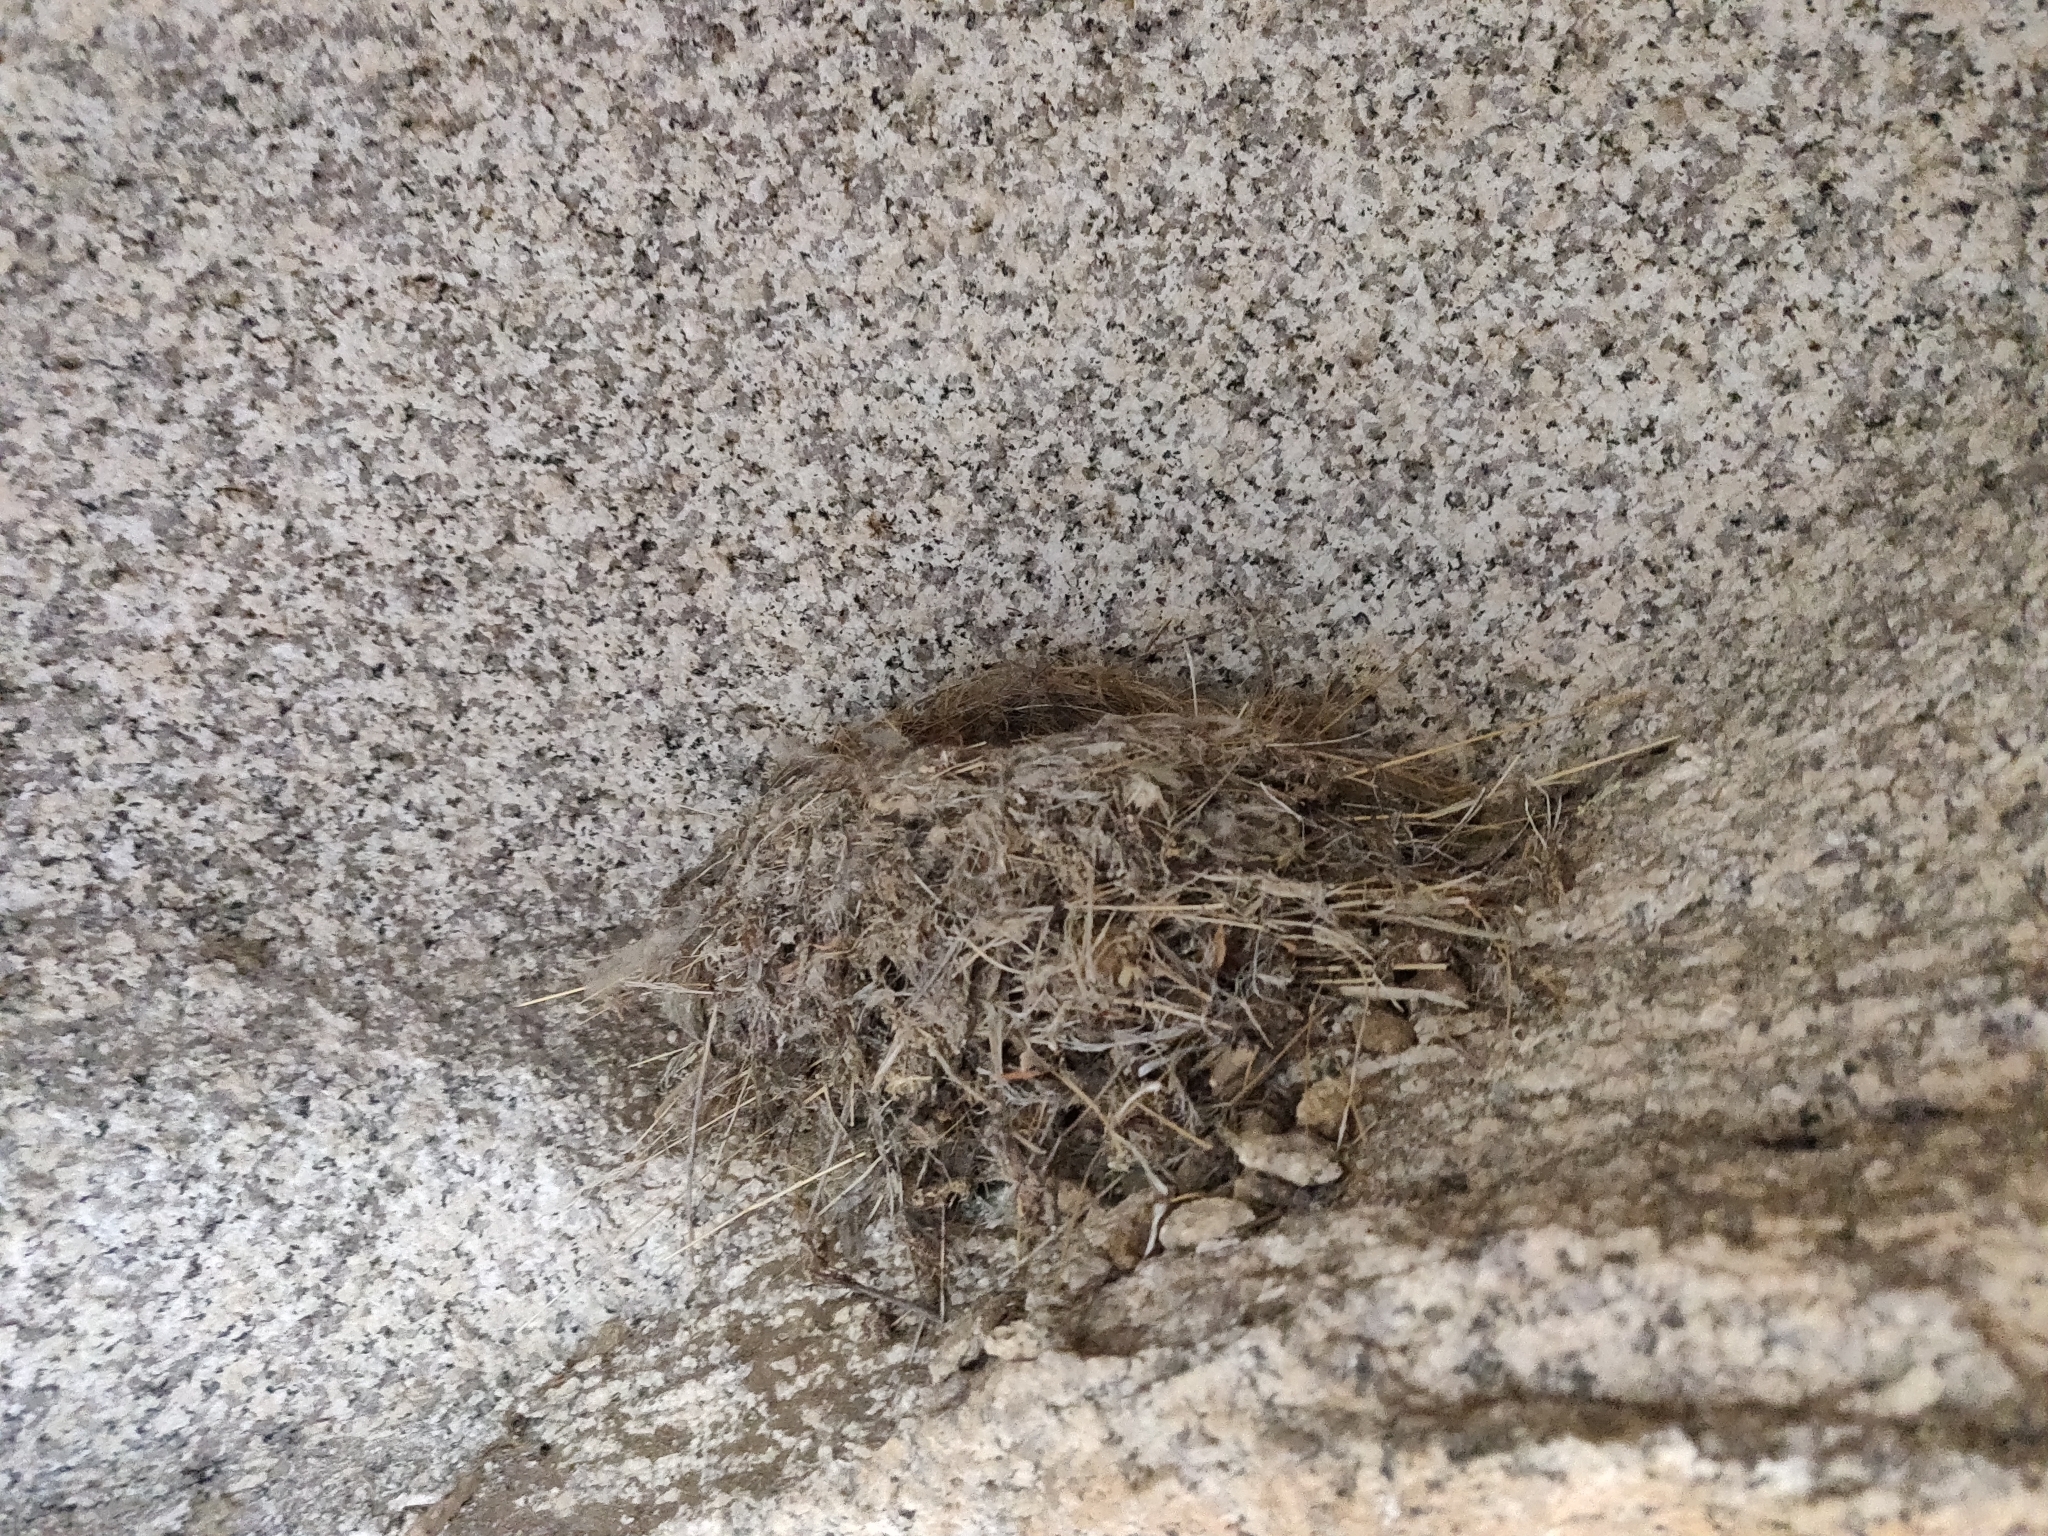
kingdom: Animalia
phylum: Chordata
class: Aves
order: Passeriformes
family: Tyrannidae
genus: Sayornis
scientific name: Sayornis saya
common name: Say's phoebe
